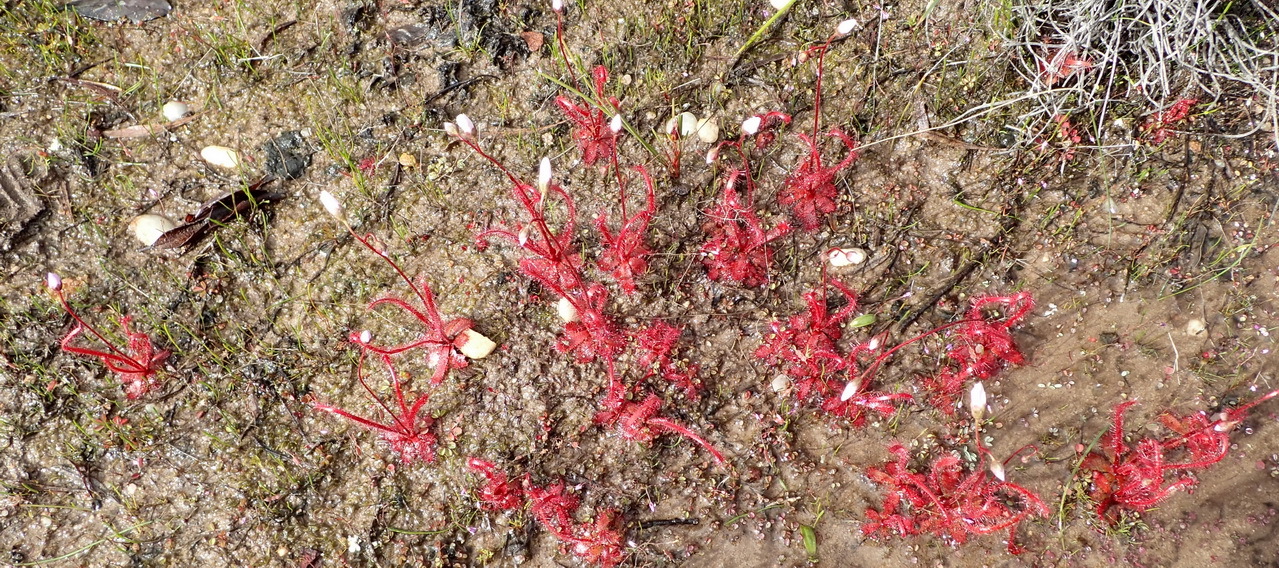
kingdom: Plantae
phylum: Tracheophyta
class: Magnoliopsida
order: Caryophyllales
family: Droseraceae
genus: Drosera
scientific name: Drosera alba
